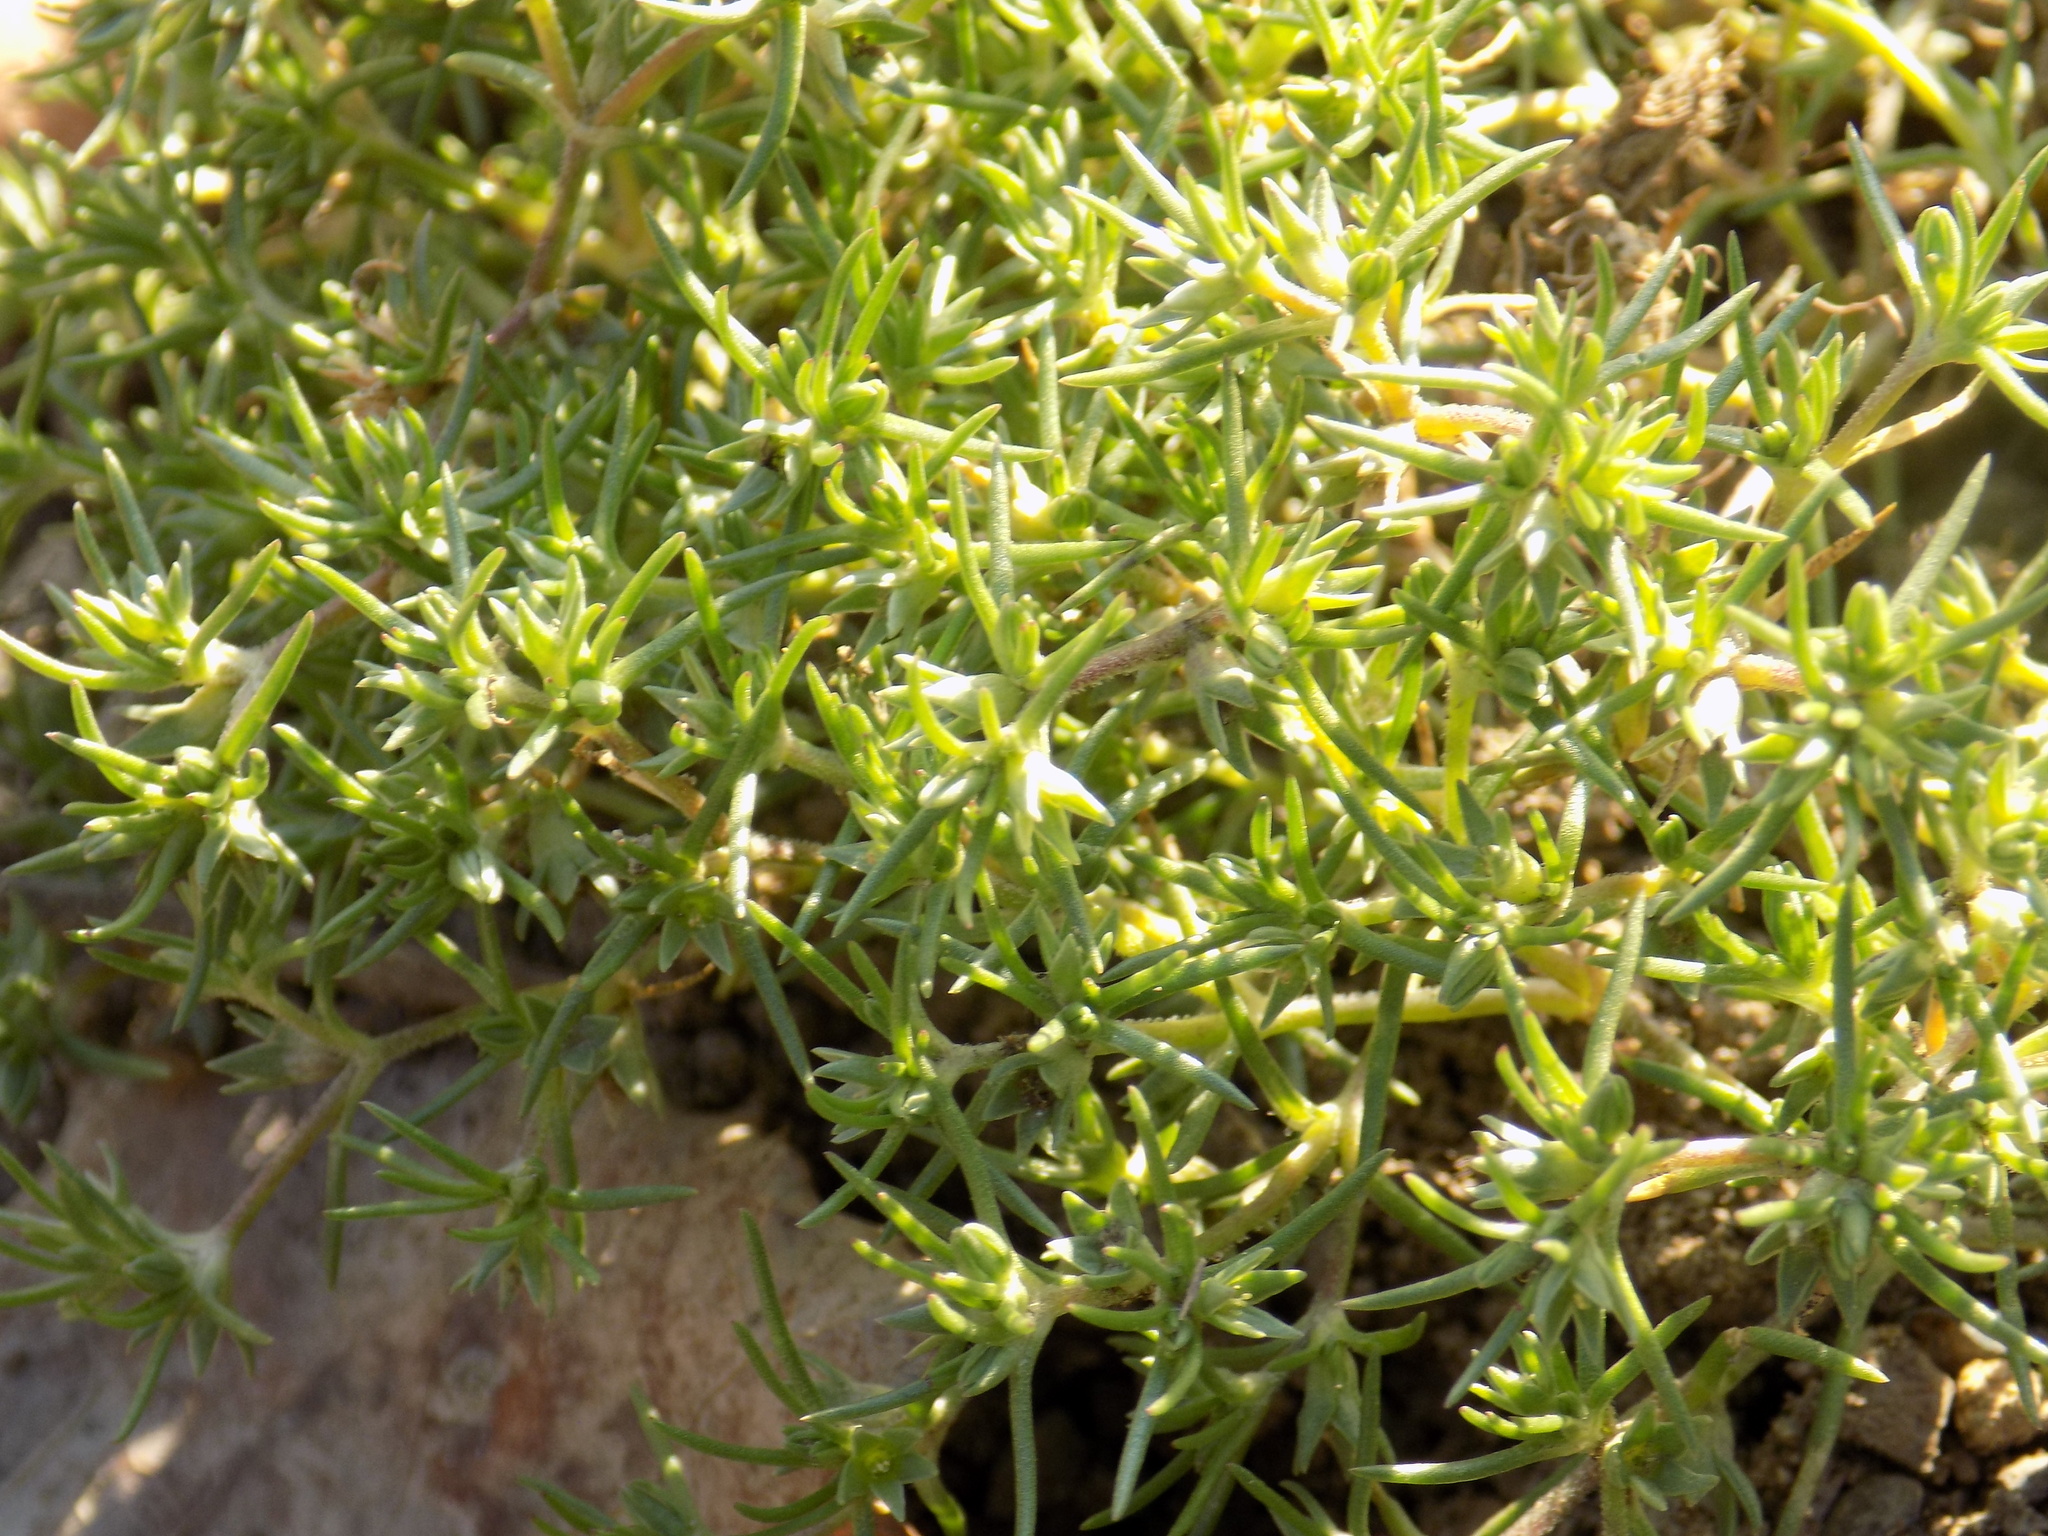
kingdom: Plantae
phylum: Tracheophyta
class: Magnoliopsida
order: Caryophyllales
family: Caryophyllaceae
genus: Scleranthus
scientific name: Scleranthus annuus
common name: Annual knawel
